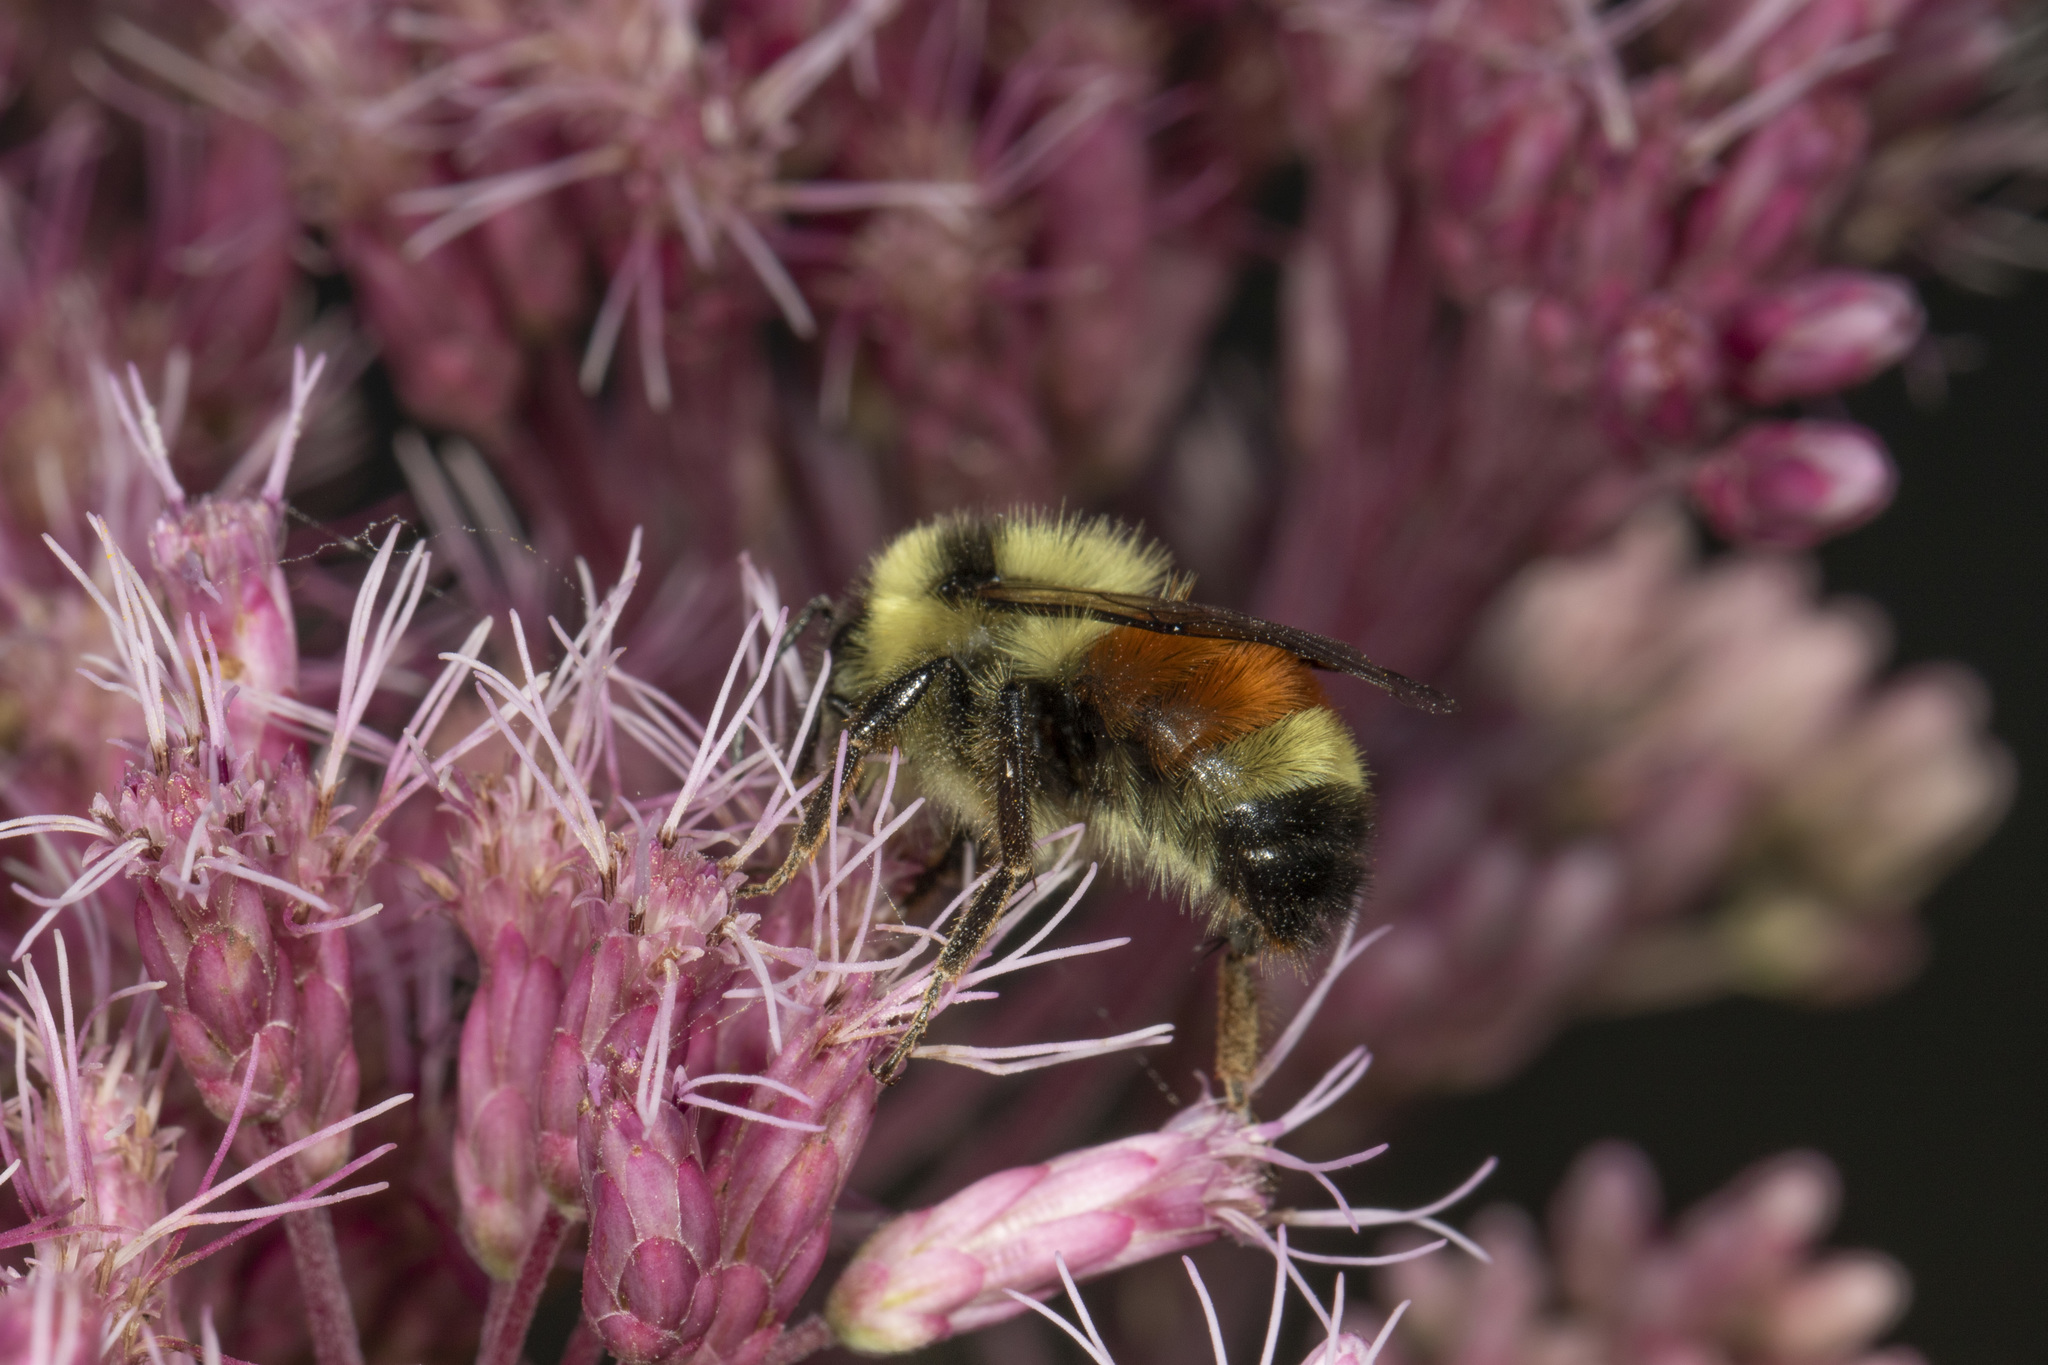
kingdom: Animalia
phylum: Arthropoda
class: Insecta
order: Hymenoptera
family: Apidae
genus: Bombus
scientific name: Bombus ternarius
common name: Tri-colored bumble bee
